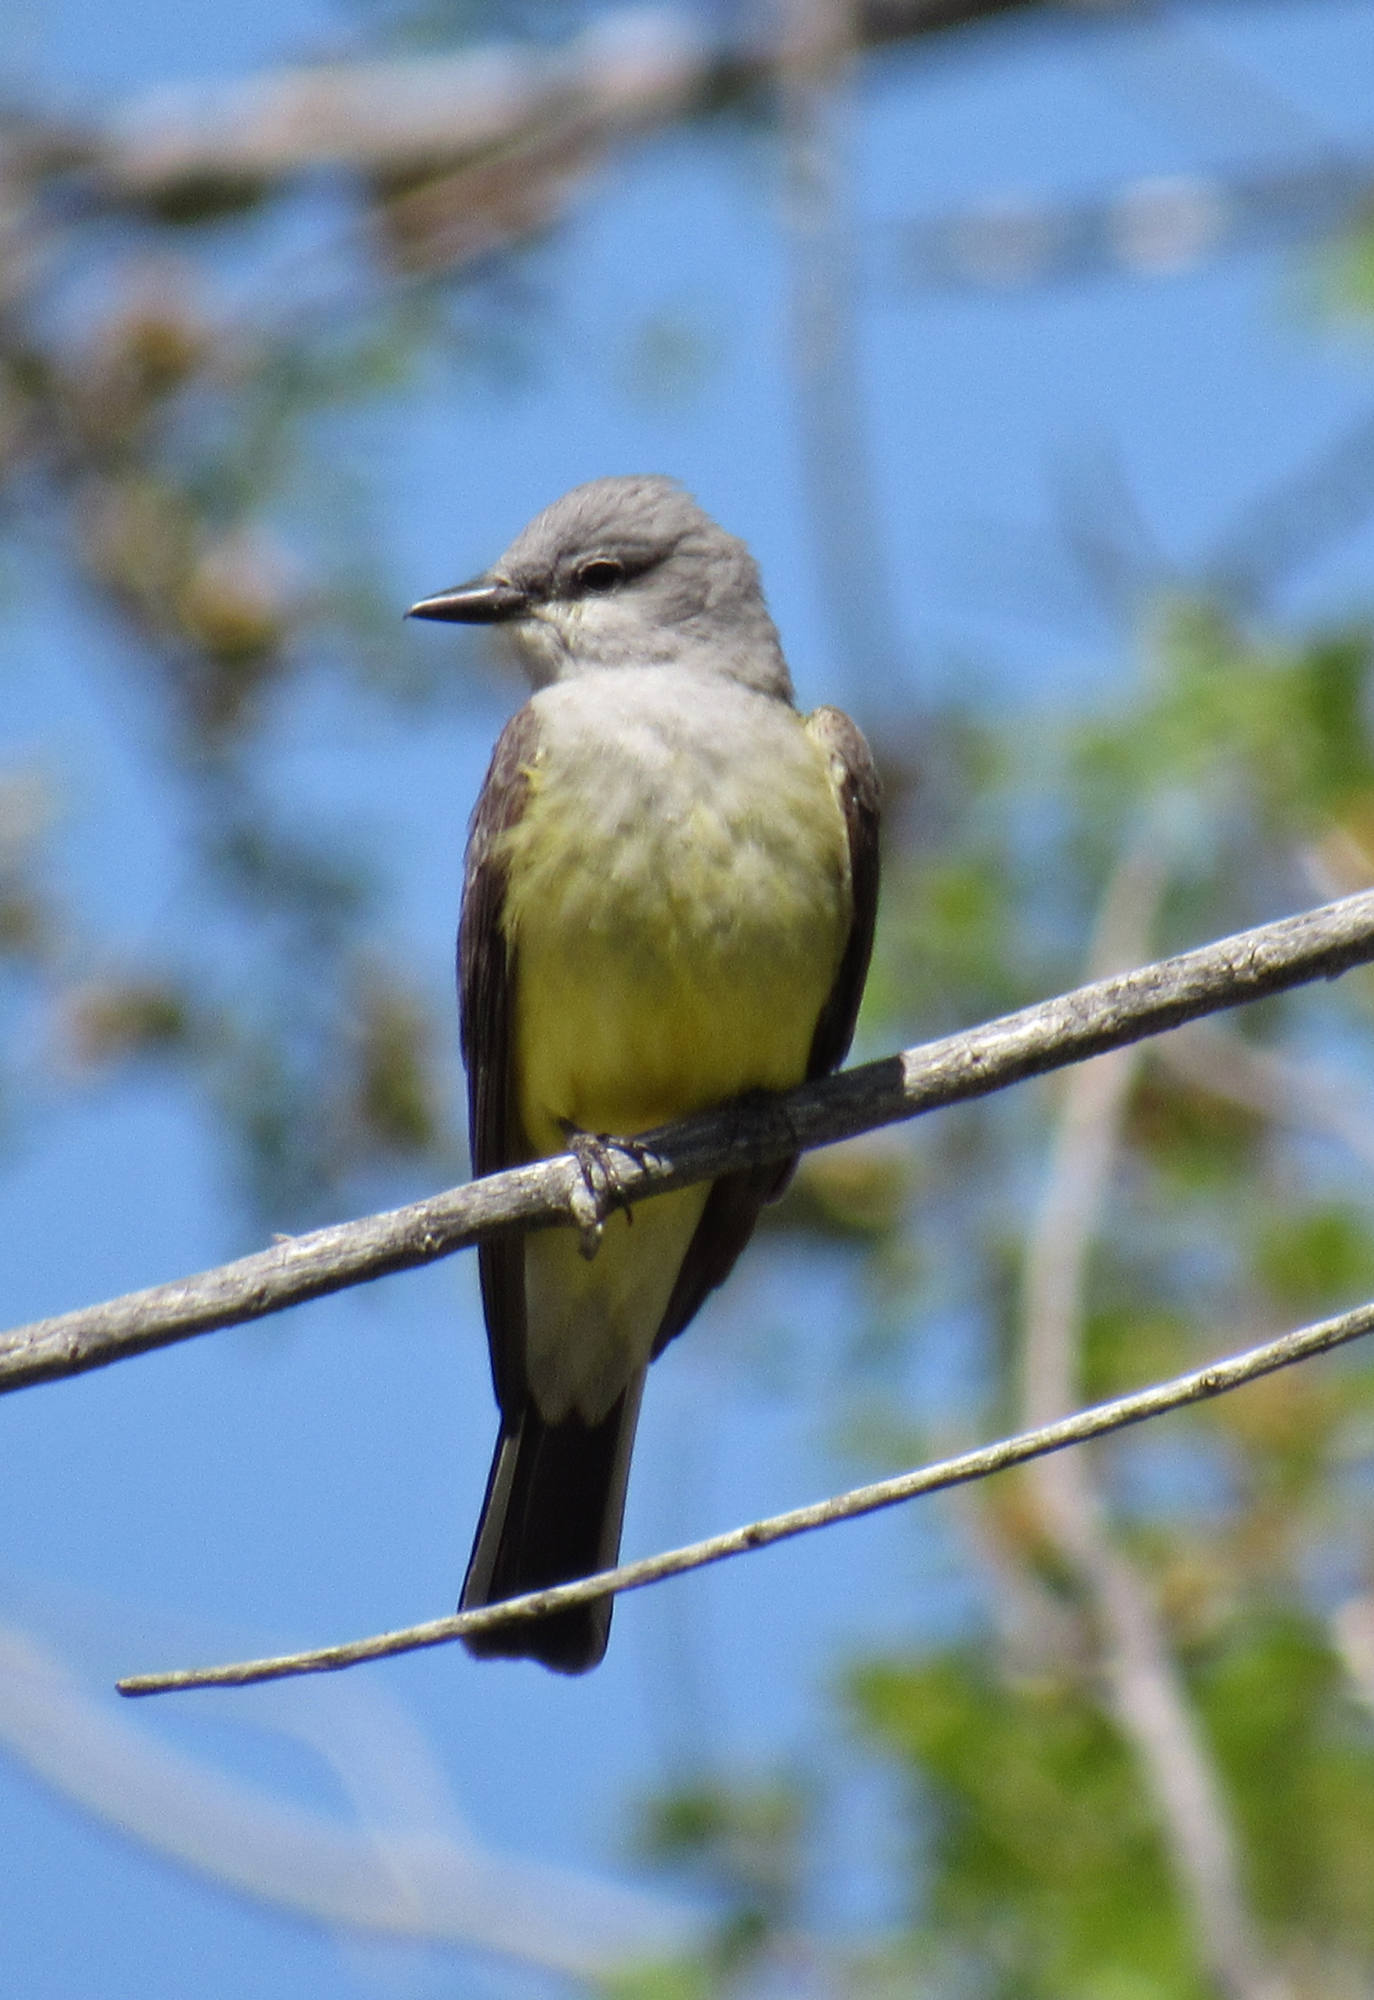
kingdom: Animalia
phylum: Chordata
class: Aves
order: Passeriformes
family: Tyrannidae
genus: Tyrannus
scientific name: Tyrannus verticalis
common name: Western kingbird
